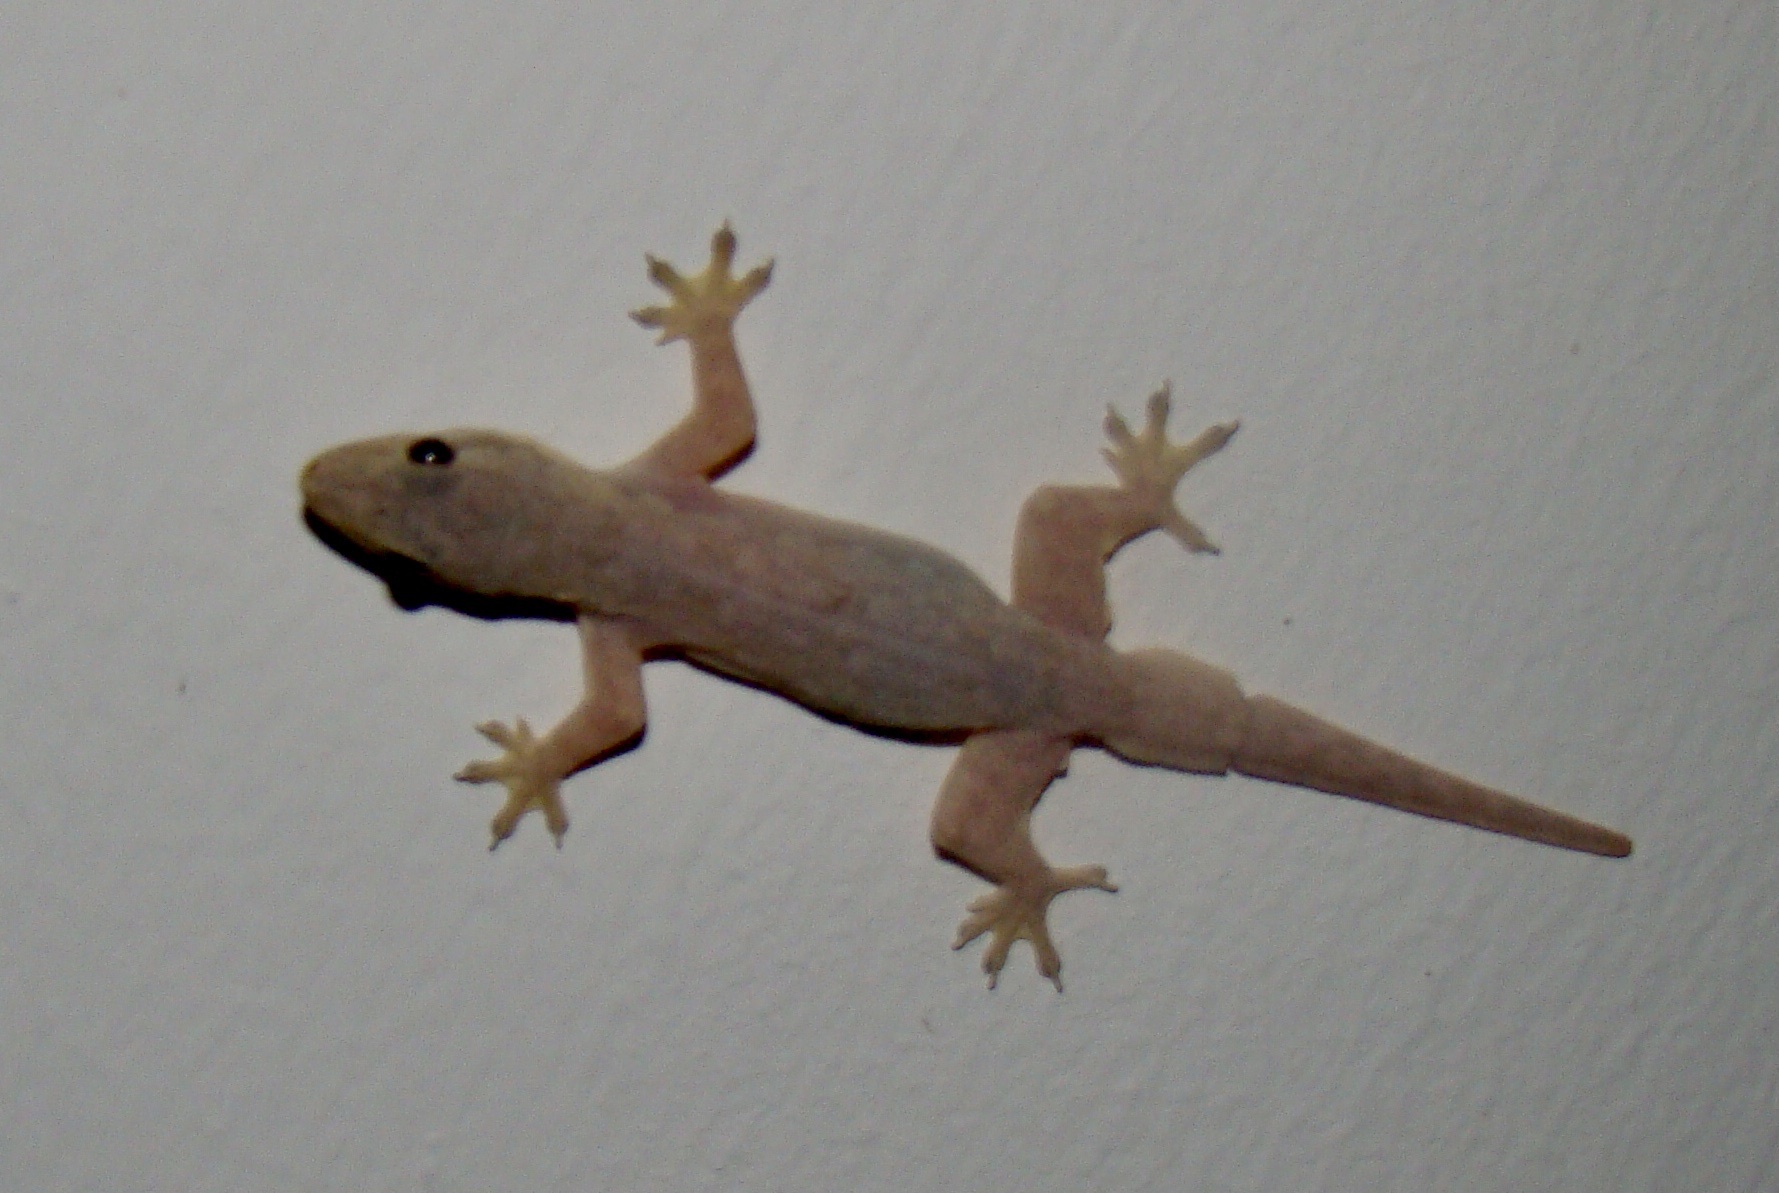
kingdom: Animalia
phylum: Chordata
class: Squamata
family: Gekkonidae
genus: Hemidactylus
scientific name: Hemidactylus platyurus
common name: Flat-tailed house gecko
